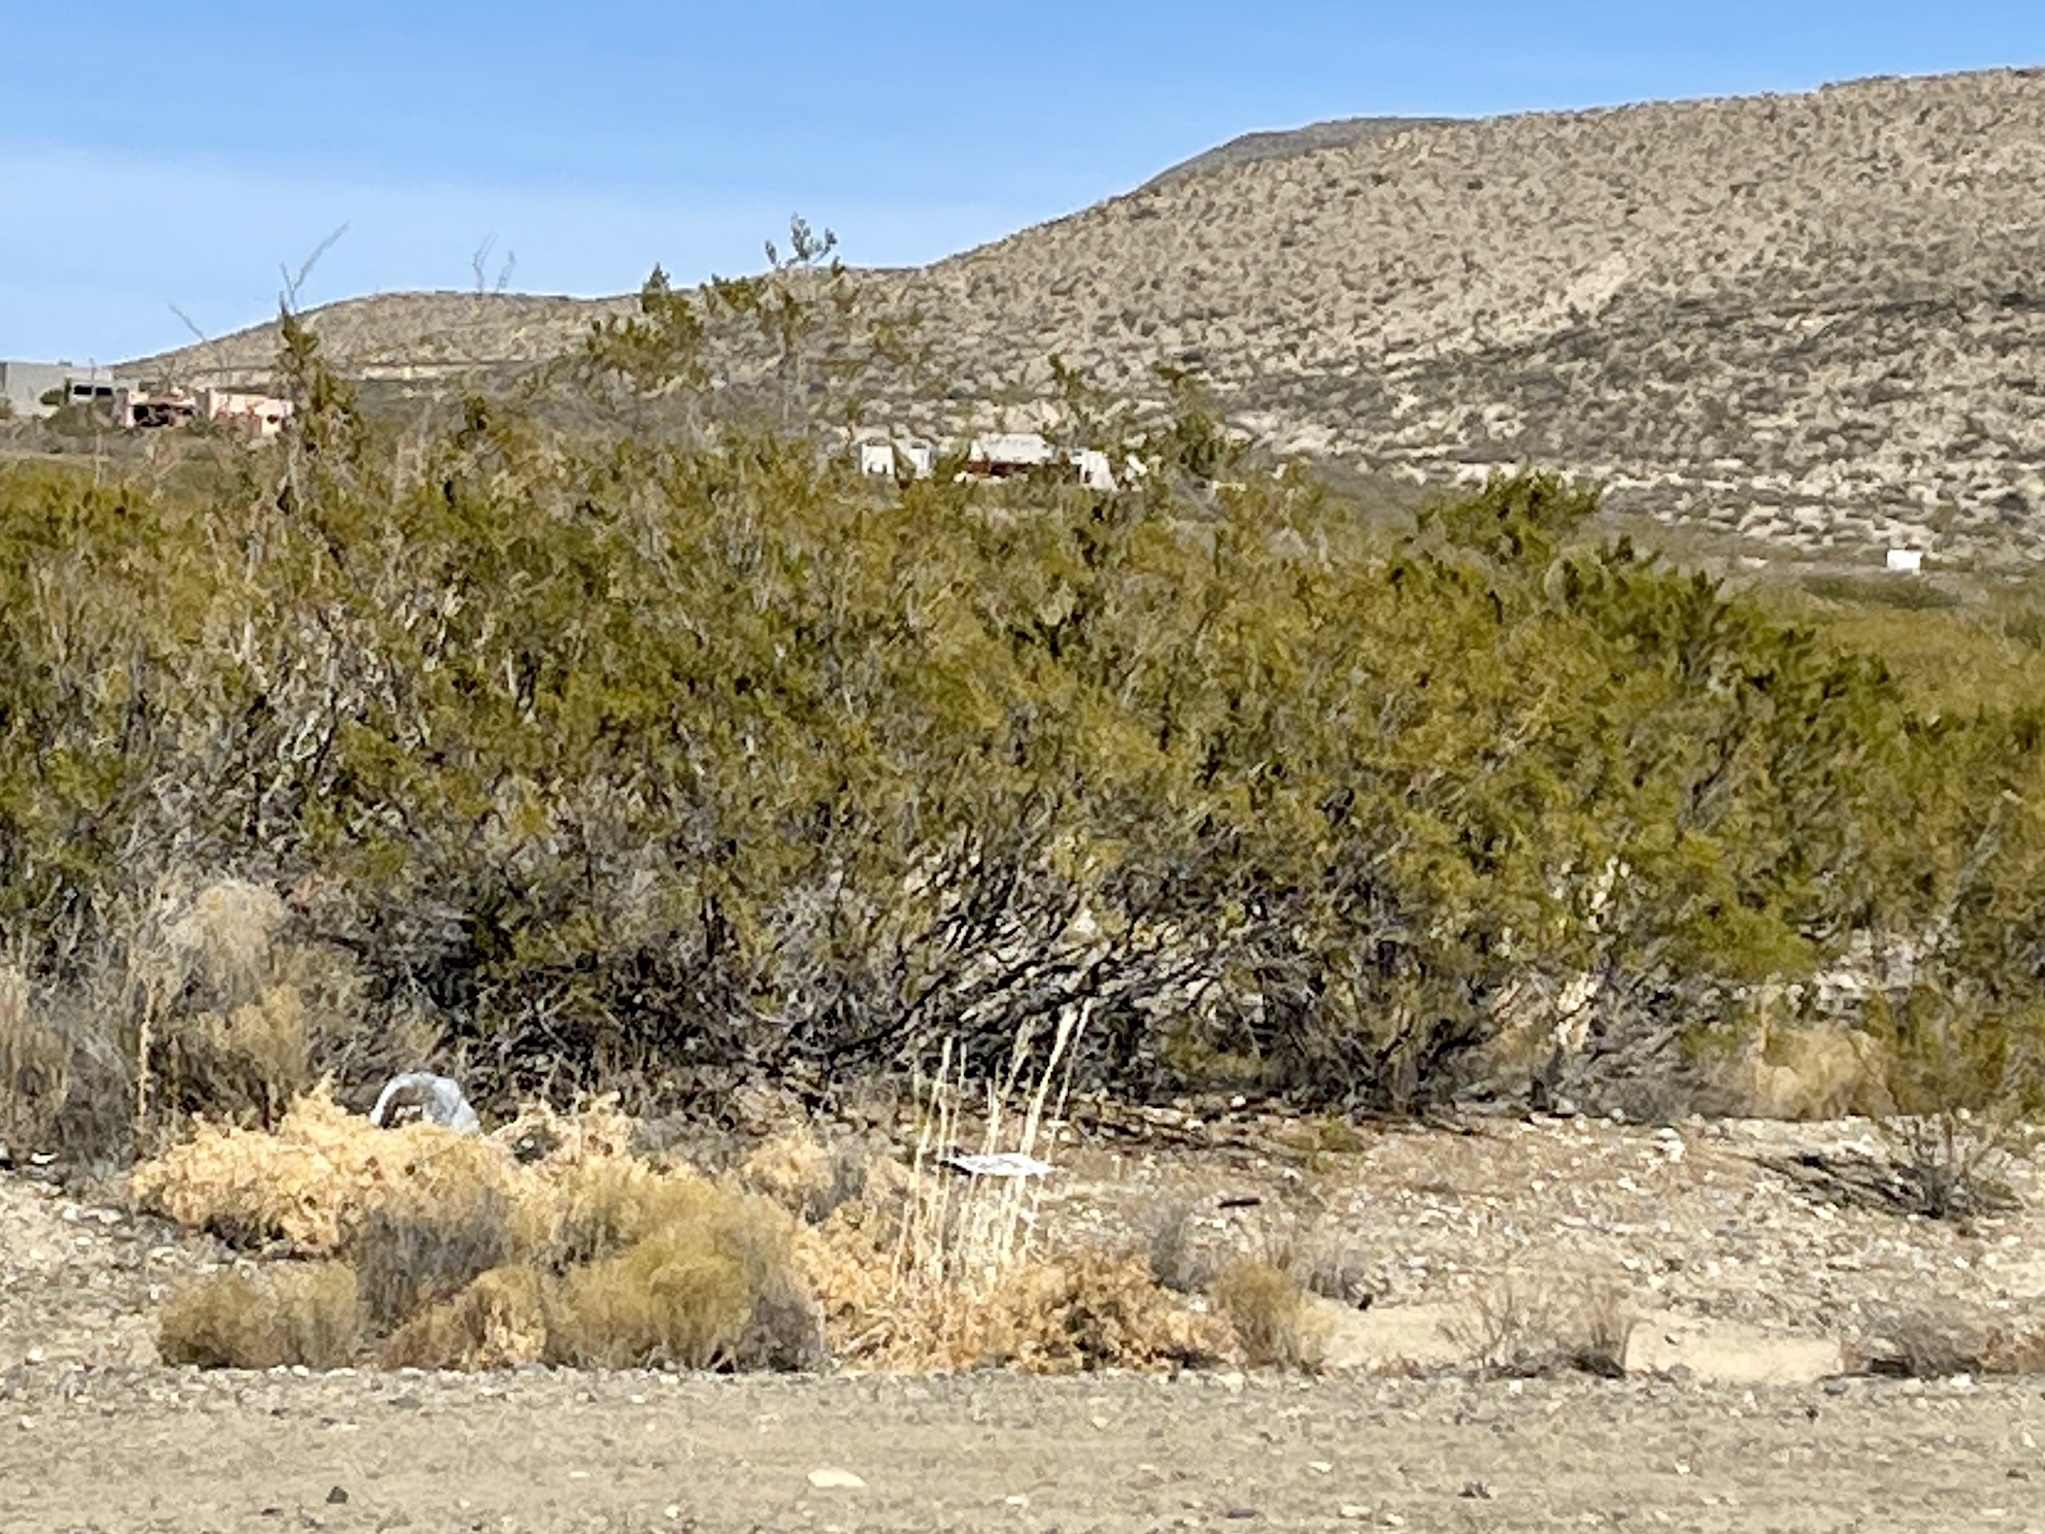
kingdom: Plantae
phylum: Tracheophyta
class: Magnoliopsida
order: Zygophyllales
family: Zygophyllaceae
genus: Larrea
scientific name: Larrea tridentata
